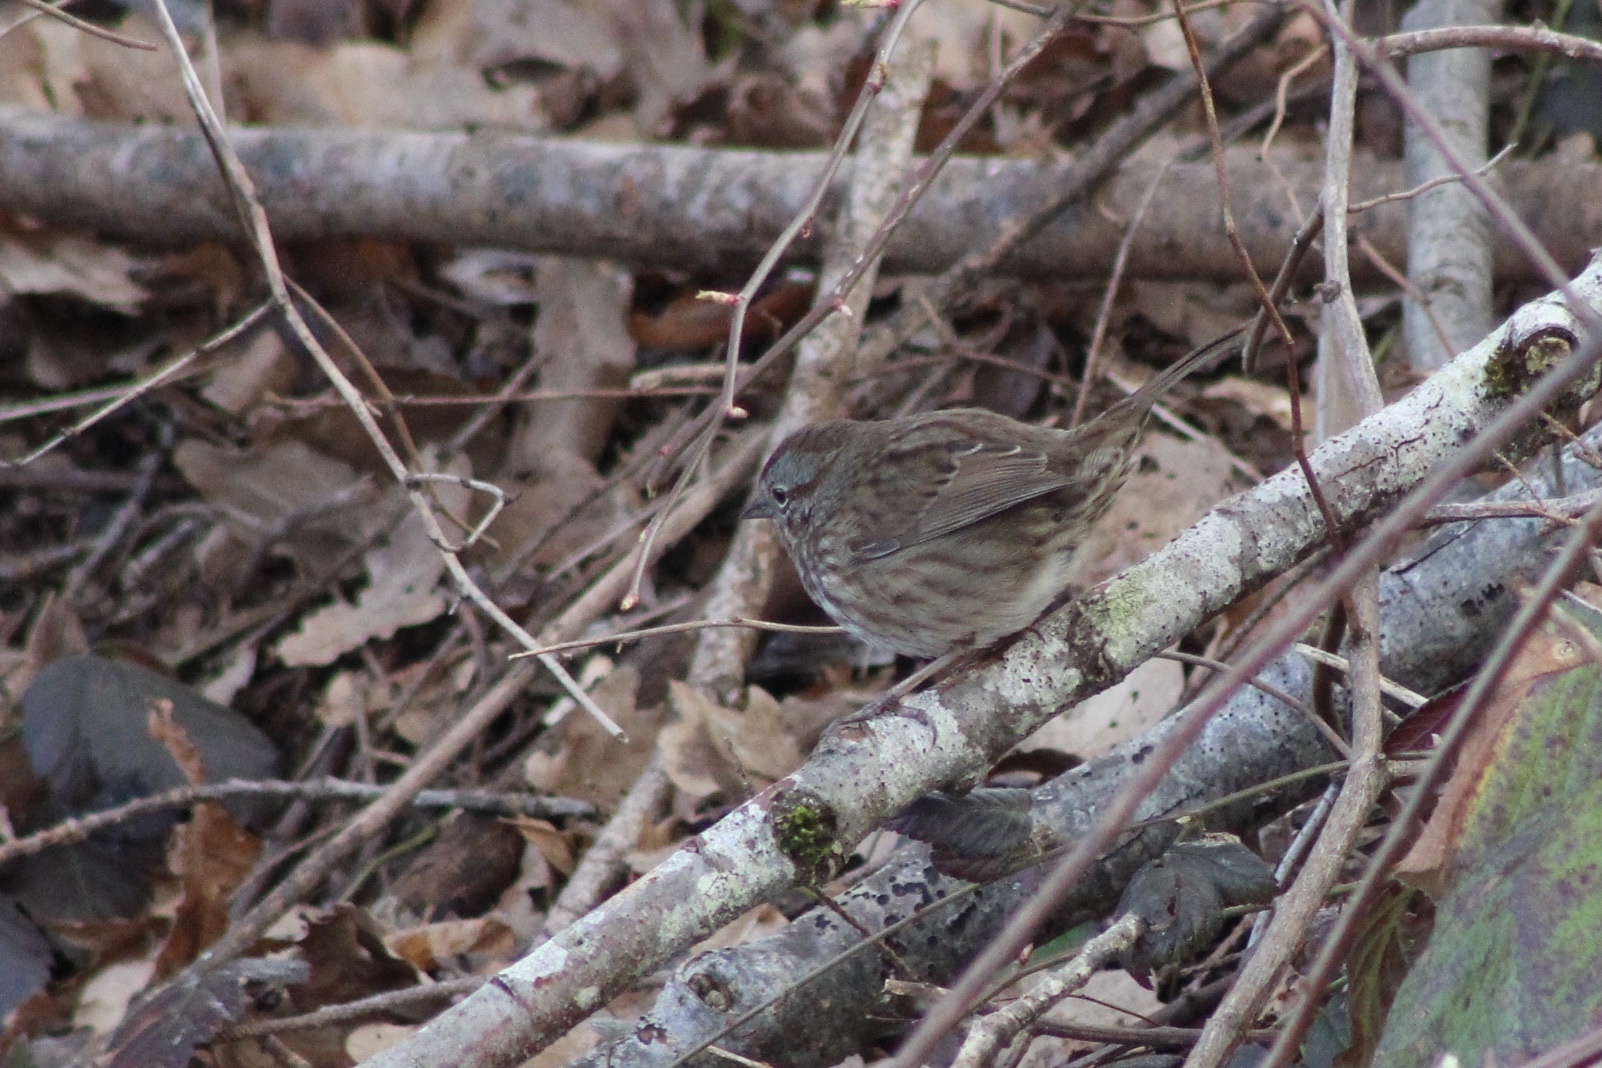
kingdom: Animalia
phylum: Chordata
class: Aves
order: Passeriformes
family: Passerellidae
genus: Melospiza
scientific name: Melospiza melodia
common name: Song sparrow
